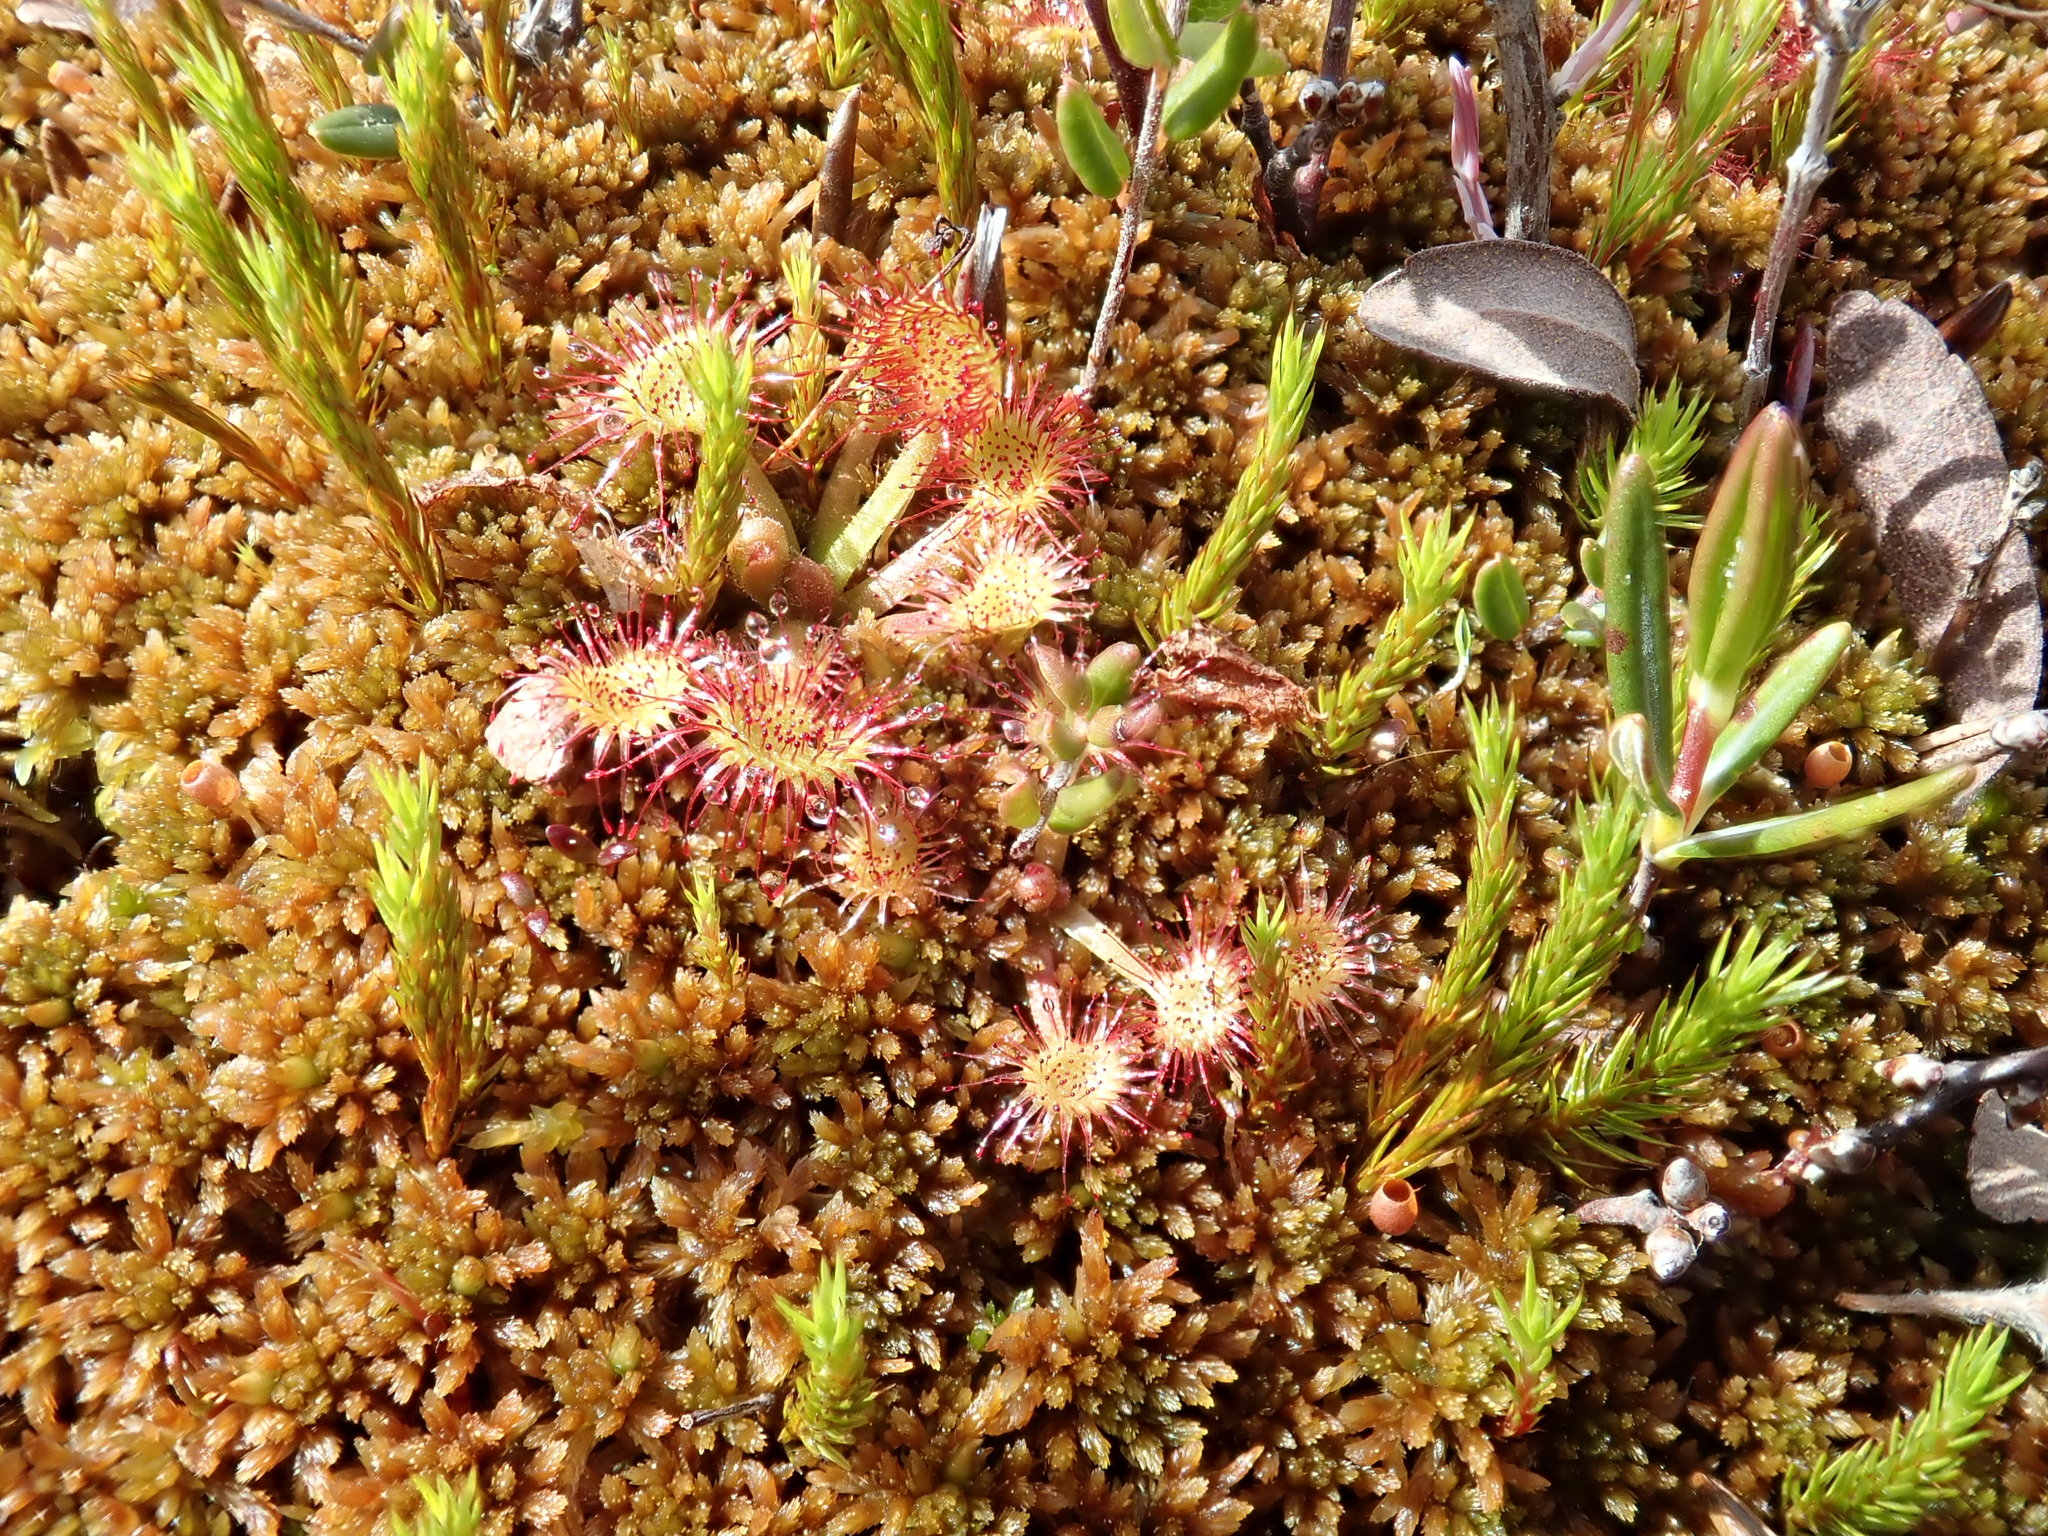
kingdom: Plantae
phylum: Tracheophyta
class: Magnoliopsida
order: Caryophyllales
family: Droseraceae
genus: Drosera
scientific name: Drosera rotundifolia
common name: Round-leaved sundew
